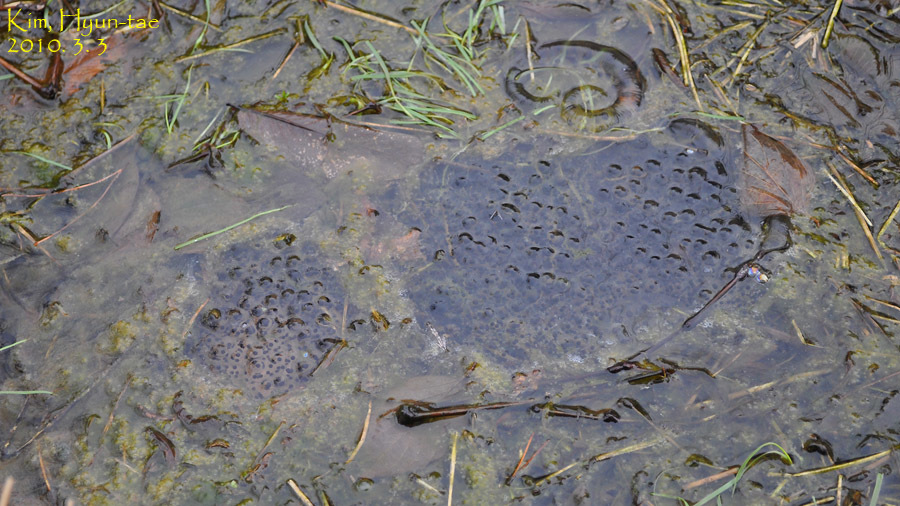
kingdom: Animalia
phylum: Chordata
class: Amphibia
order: Anura
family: Ranidae
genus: Rana
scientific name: Rana uenoi
